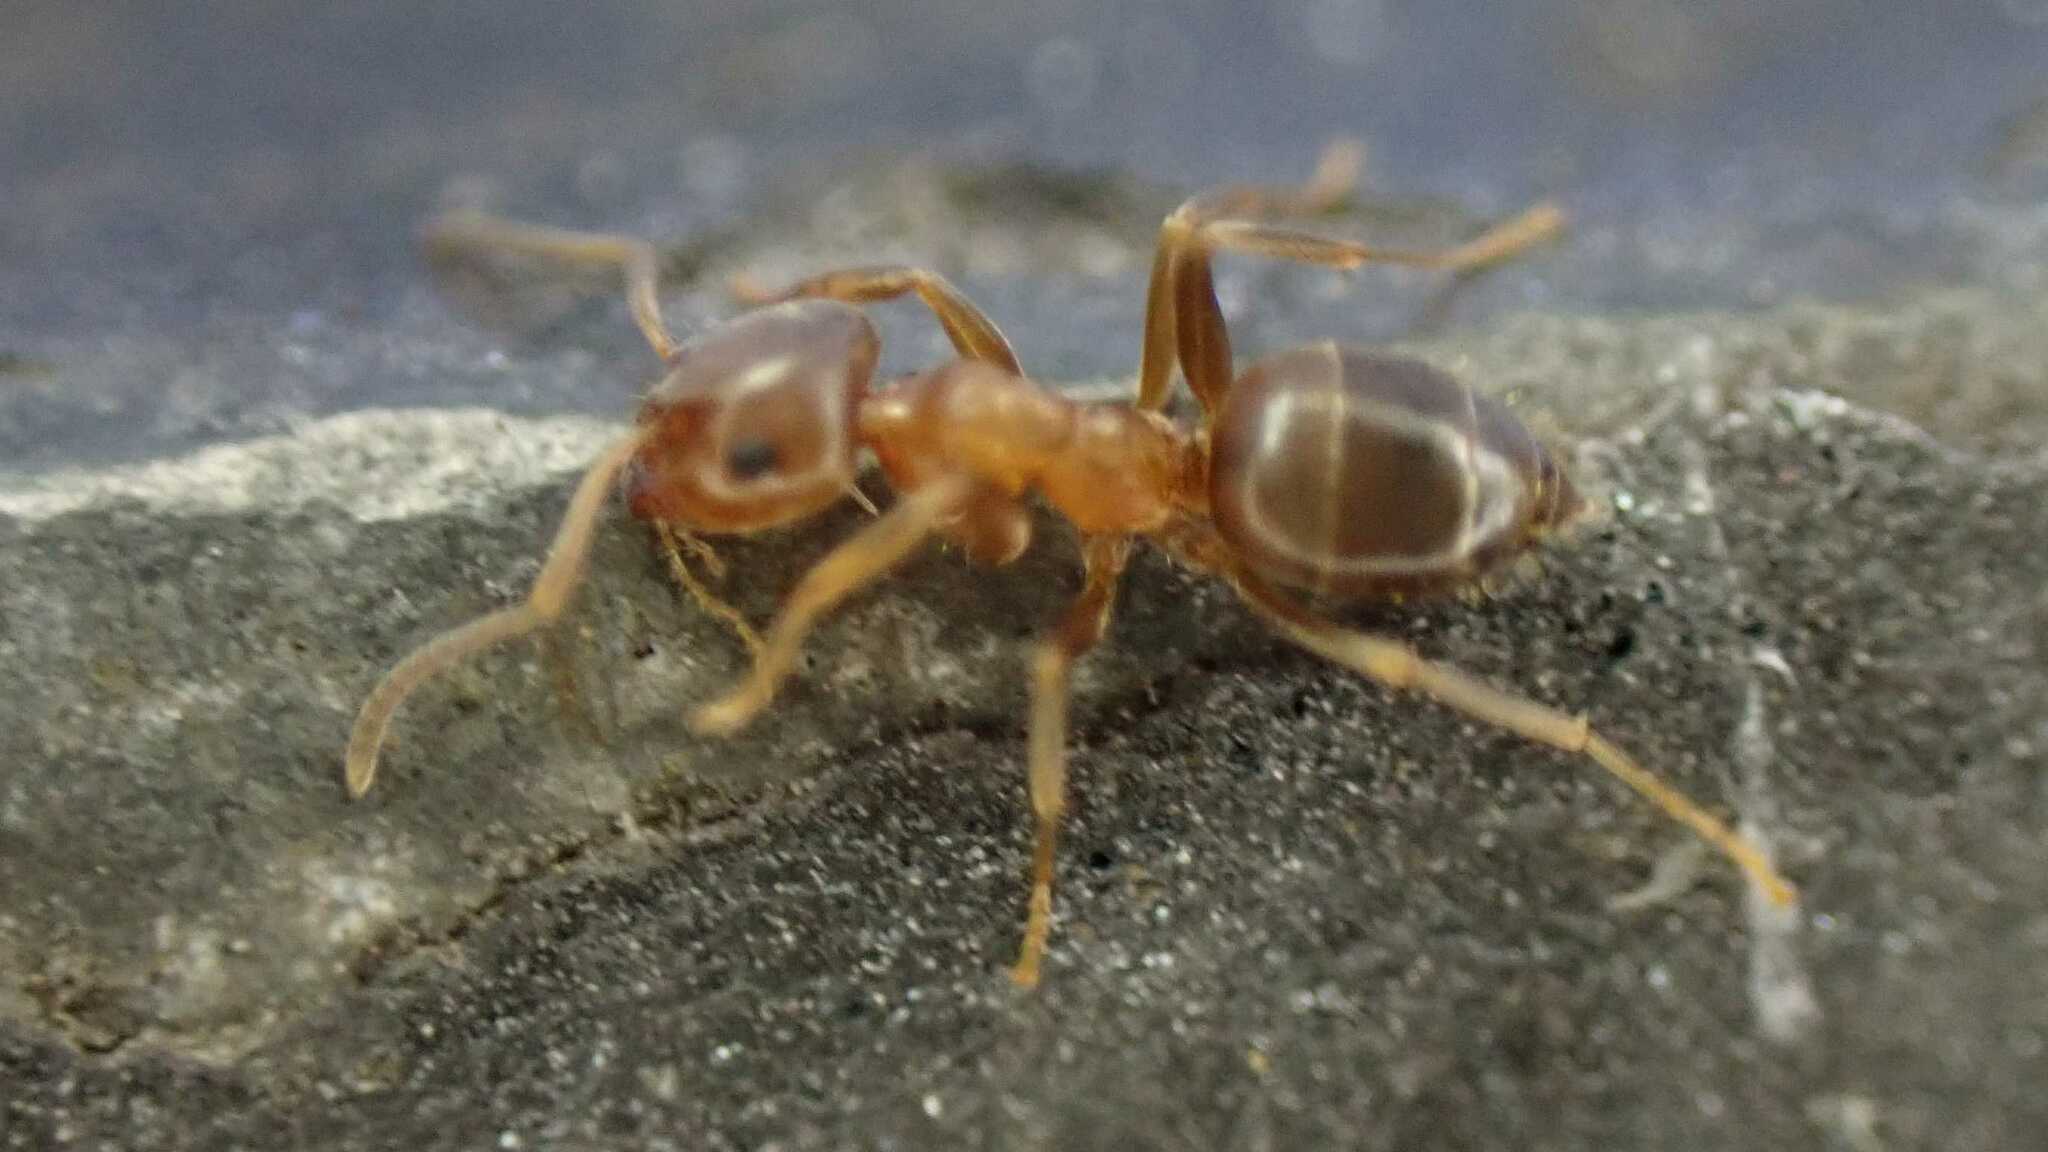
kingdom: Animalia
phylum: Arthropoda
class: Insecta
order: Hymenoptera
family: Formicidae
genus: Lasius
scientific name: Lasius brunneus
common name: Brown ant
